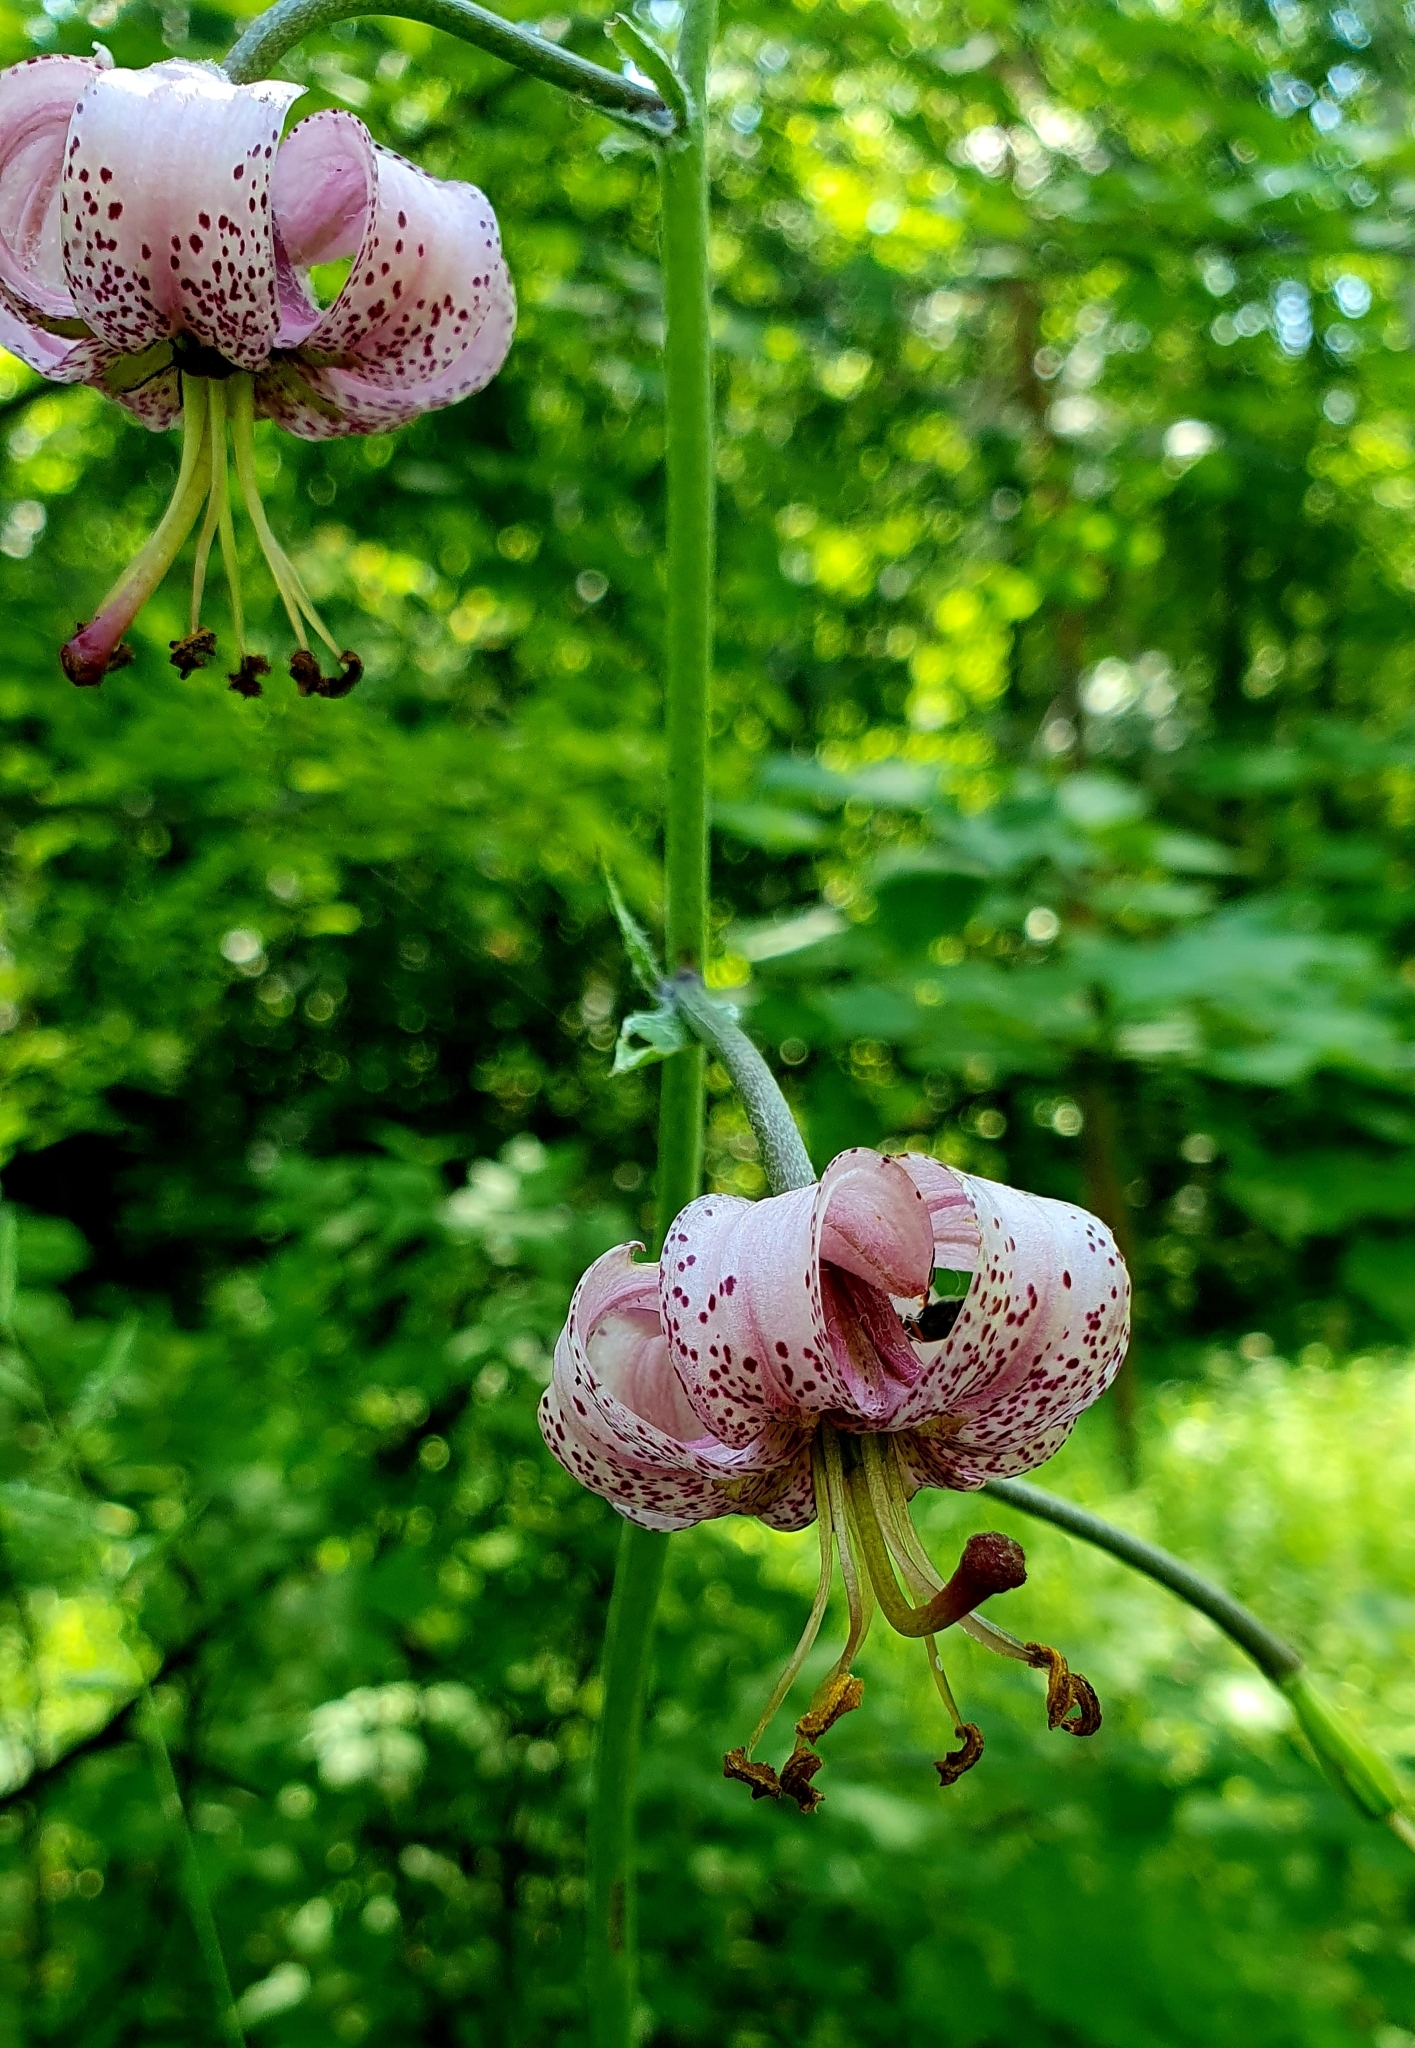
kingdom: Plantae
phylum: Tracheophyta
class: Liliopsida
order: Liliales
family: Liliaceae
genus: Lilium
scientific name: Lilium martagon
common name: Martagon lily
